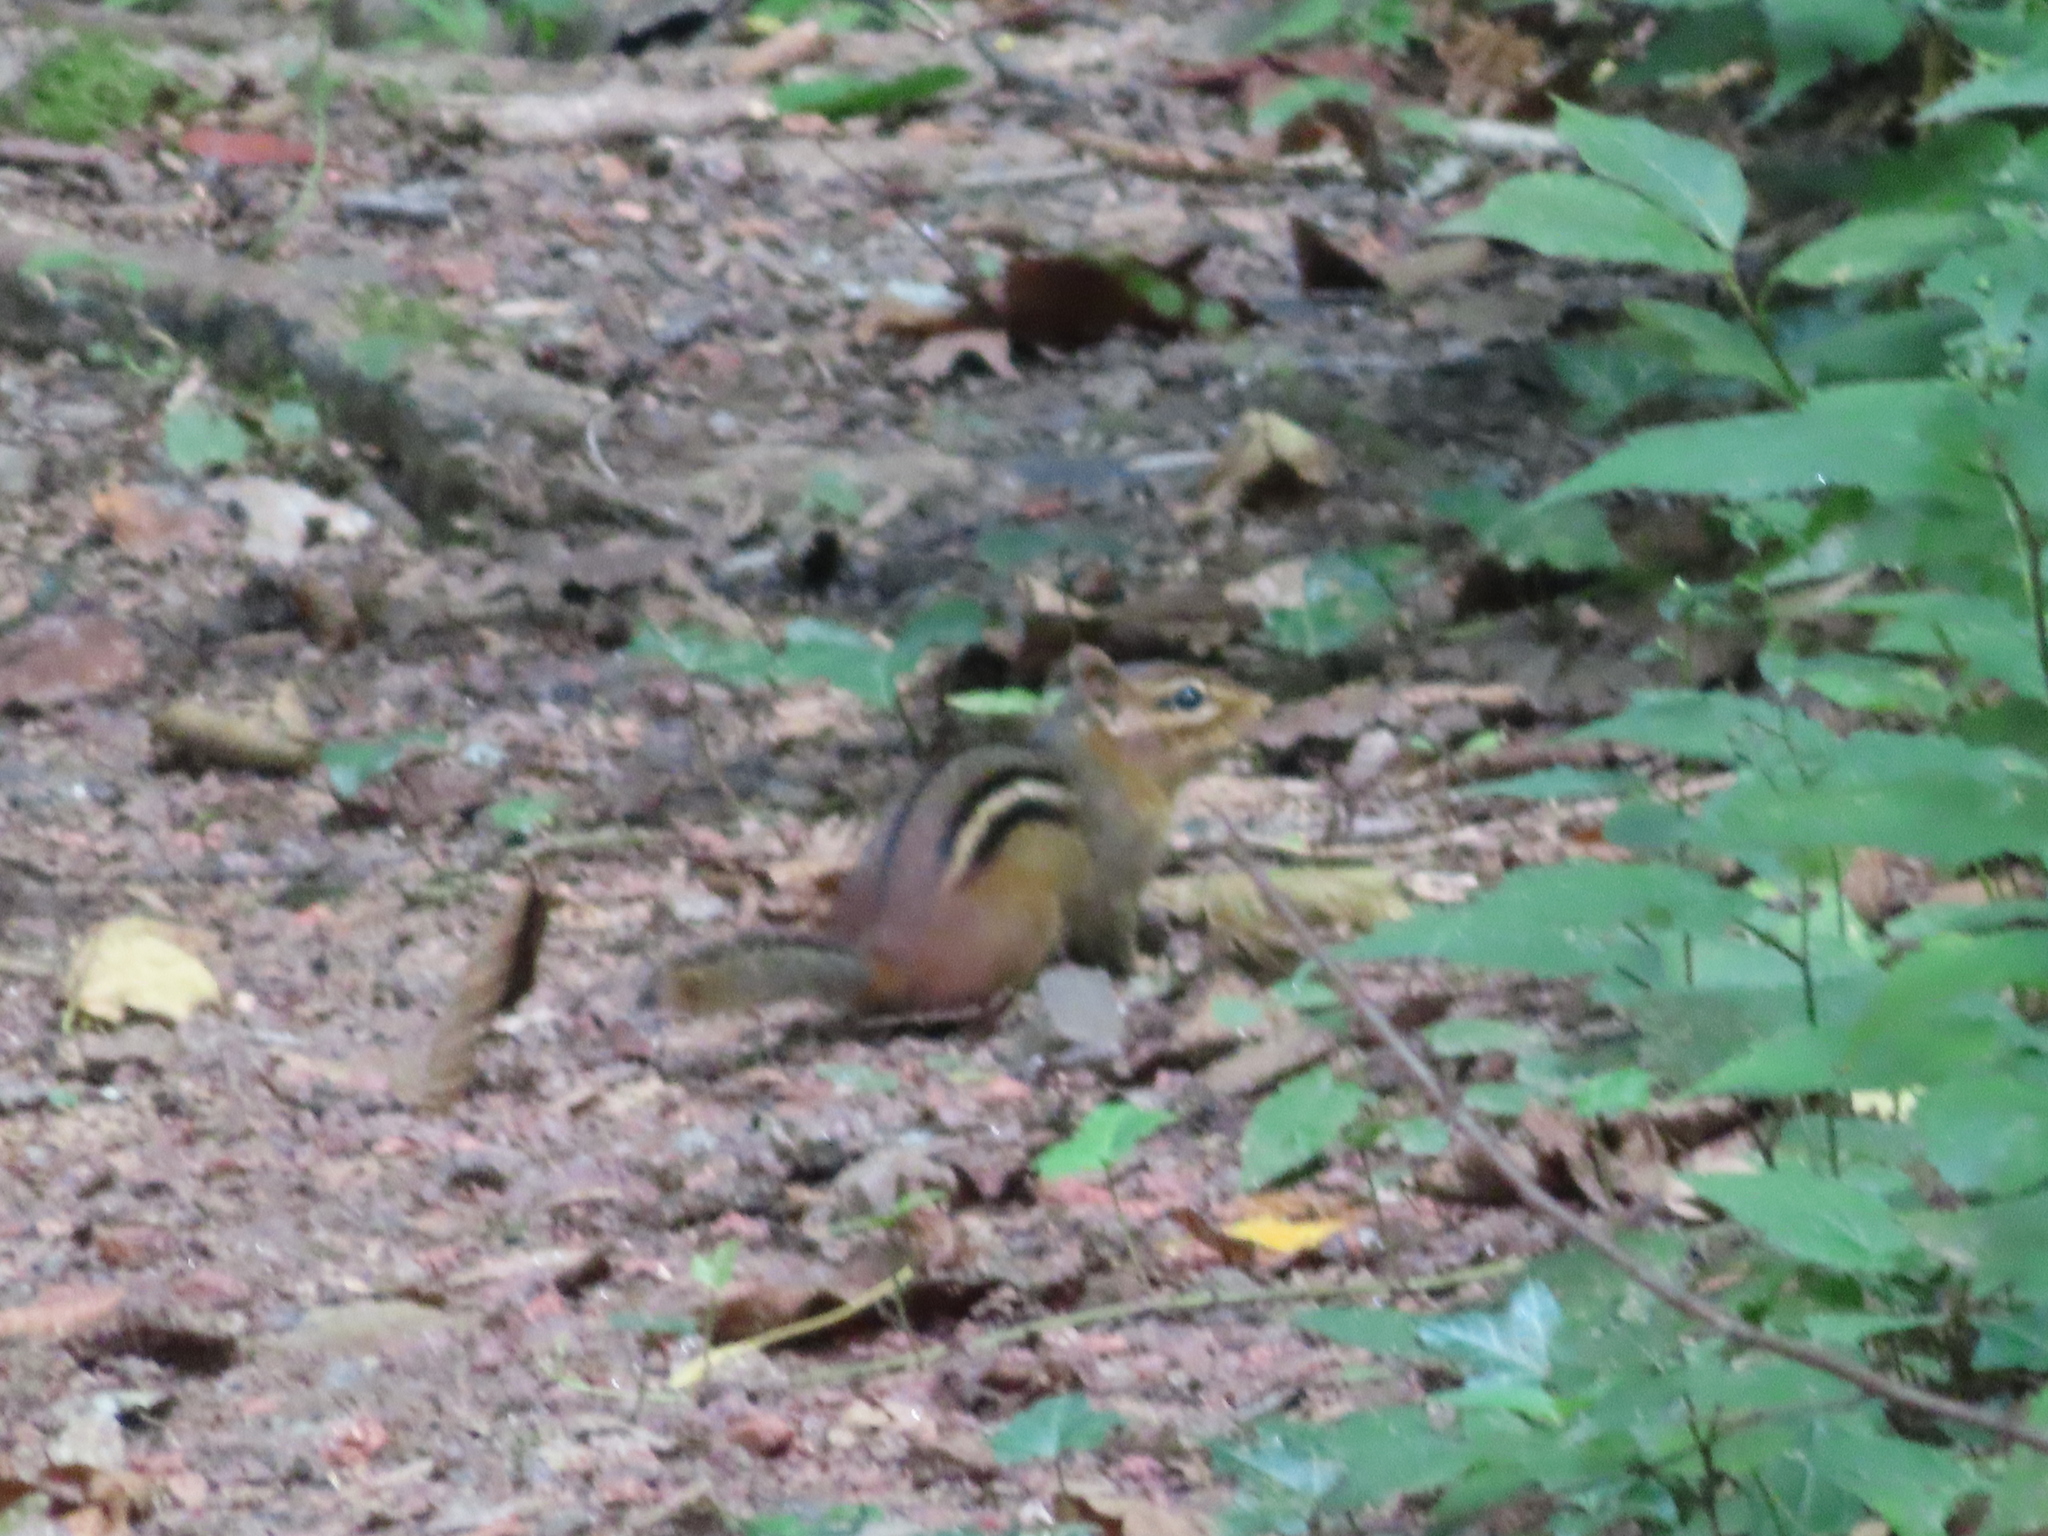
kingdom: Animalia
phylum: Chordata
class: Mammalia
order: Rodentia
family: Sciuridae
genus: Tamias
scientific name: Tamias striatus
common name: Eastern chipmunk
